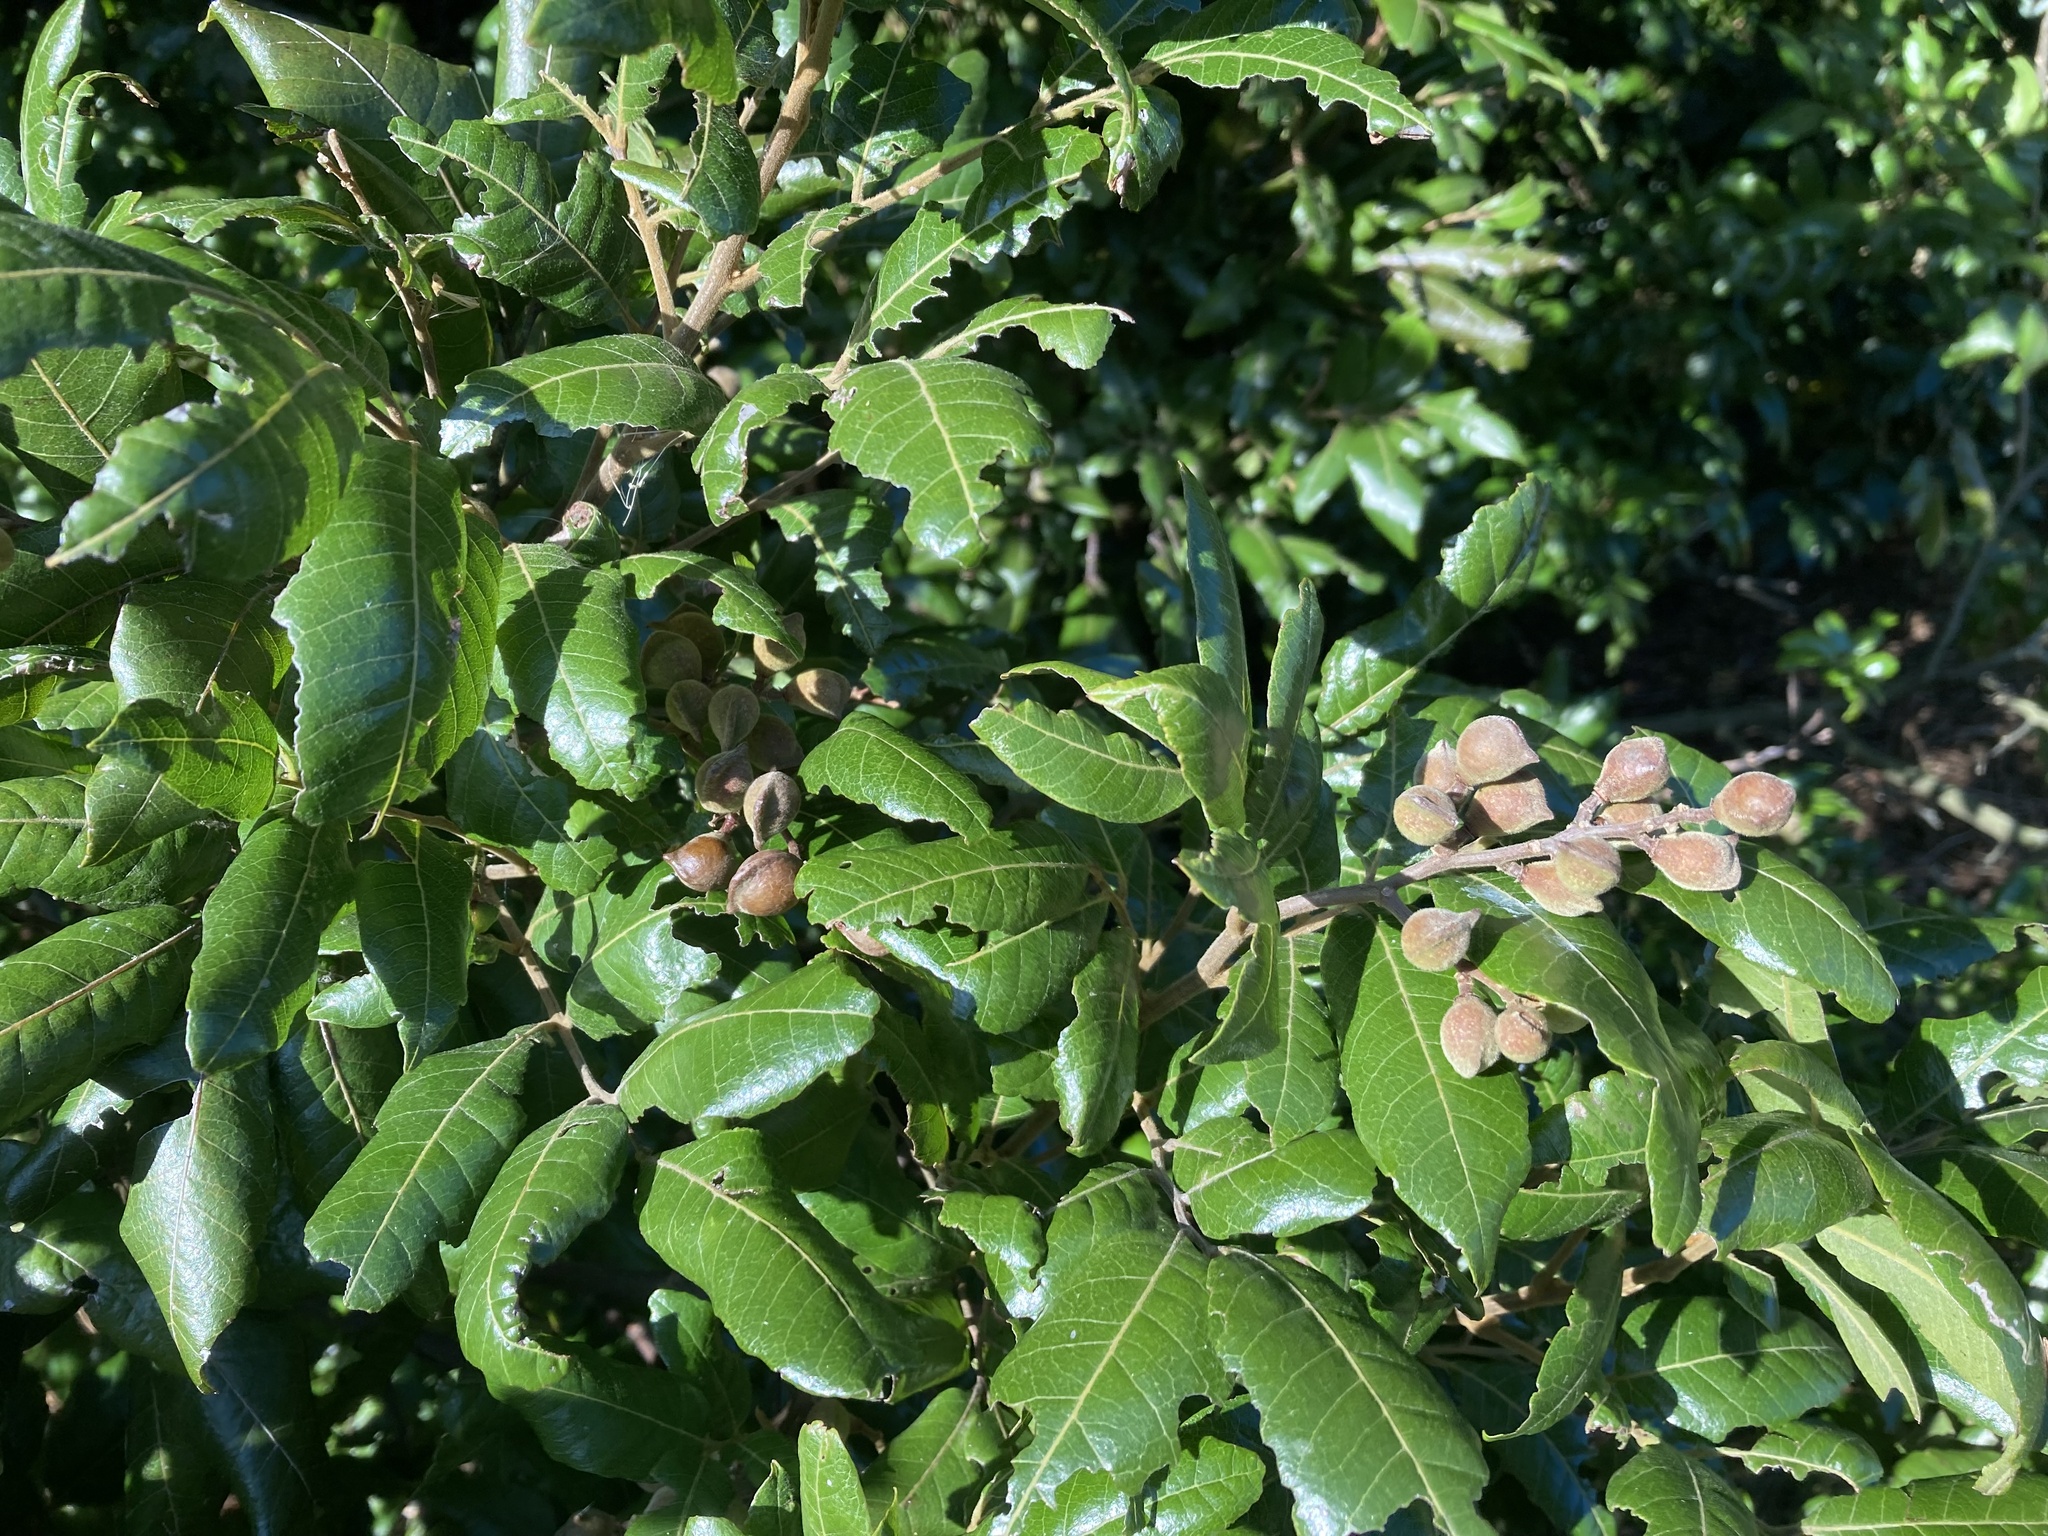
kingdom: Plantae
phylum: Tracheophyta
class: Magnoliopsida
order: Sapindales
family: Sapindaceae
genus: Alectryon
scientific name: Alectryon excelsus
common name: Three kings titoki
